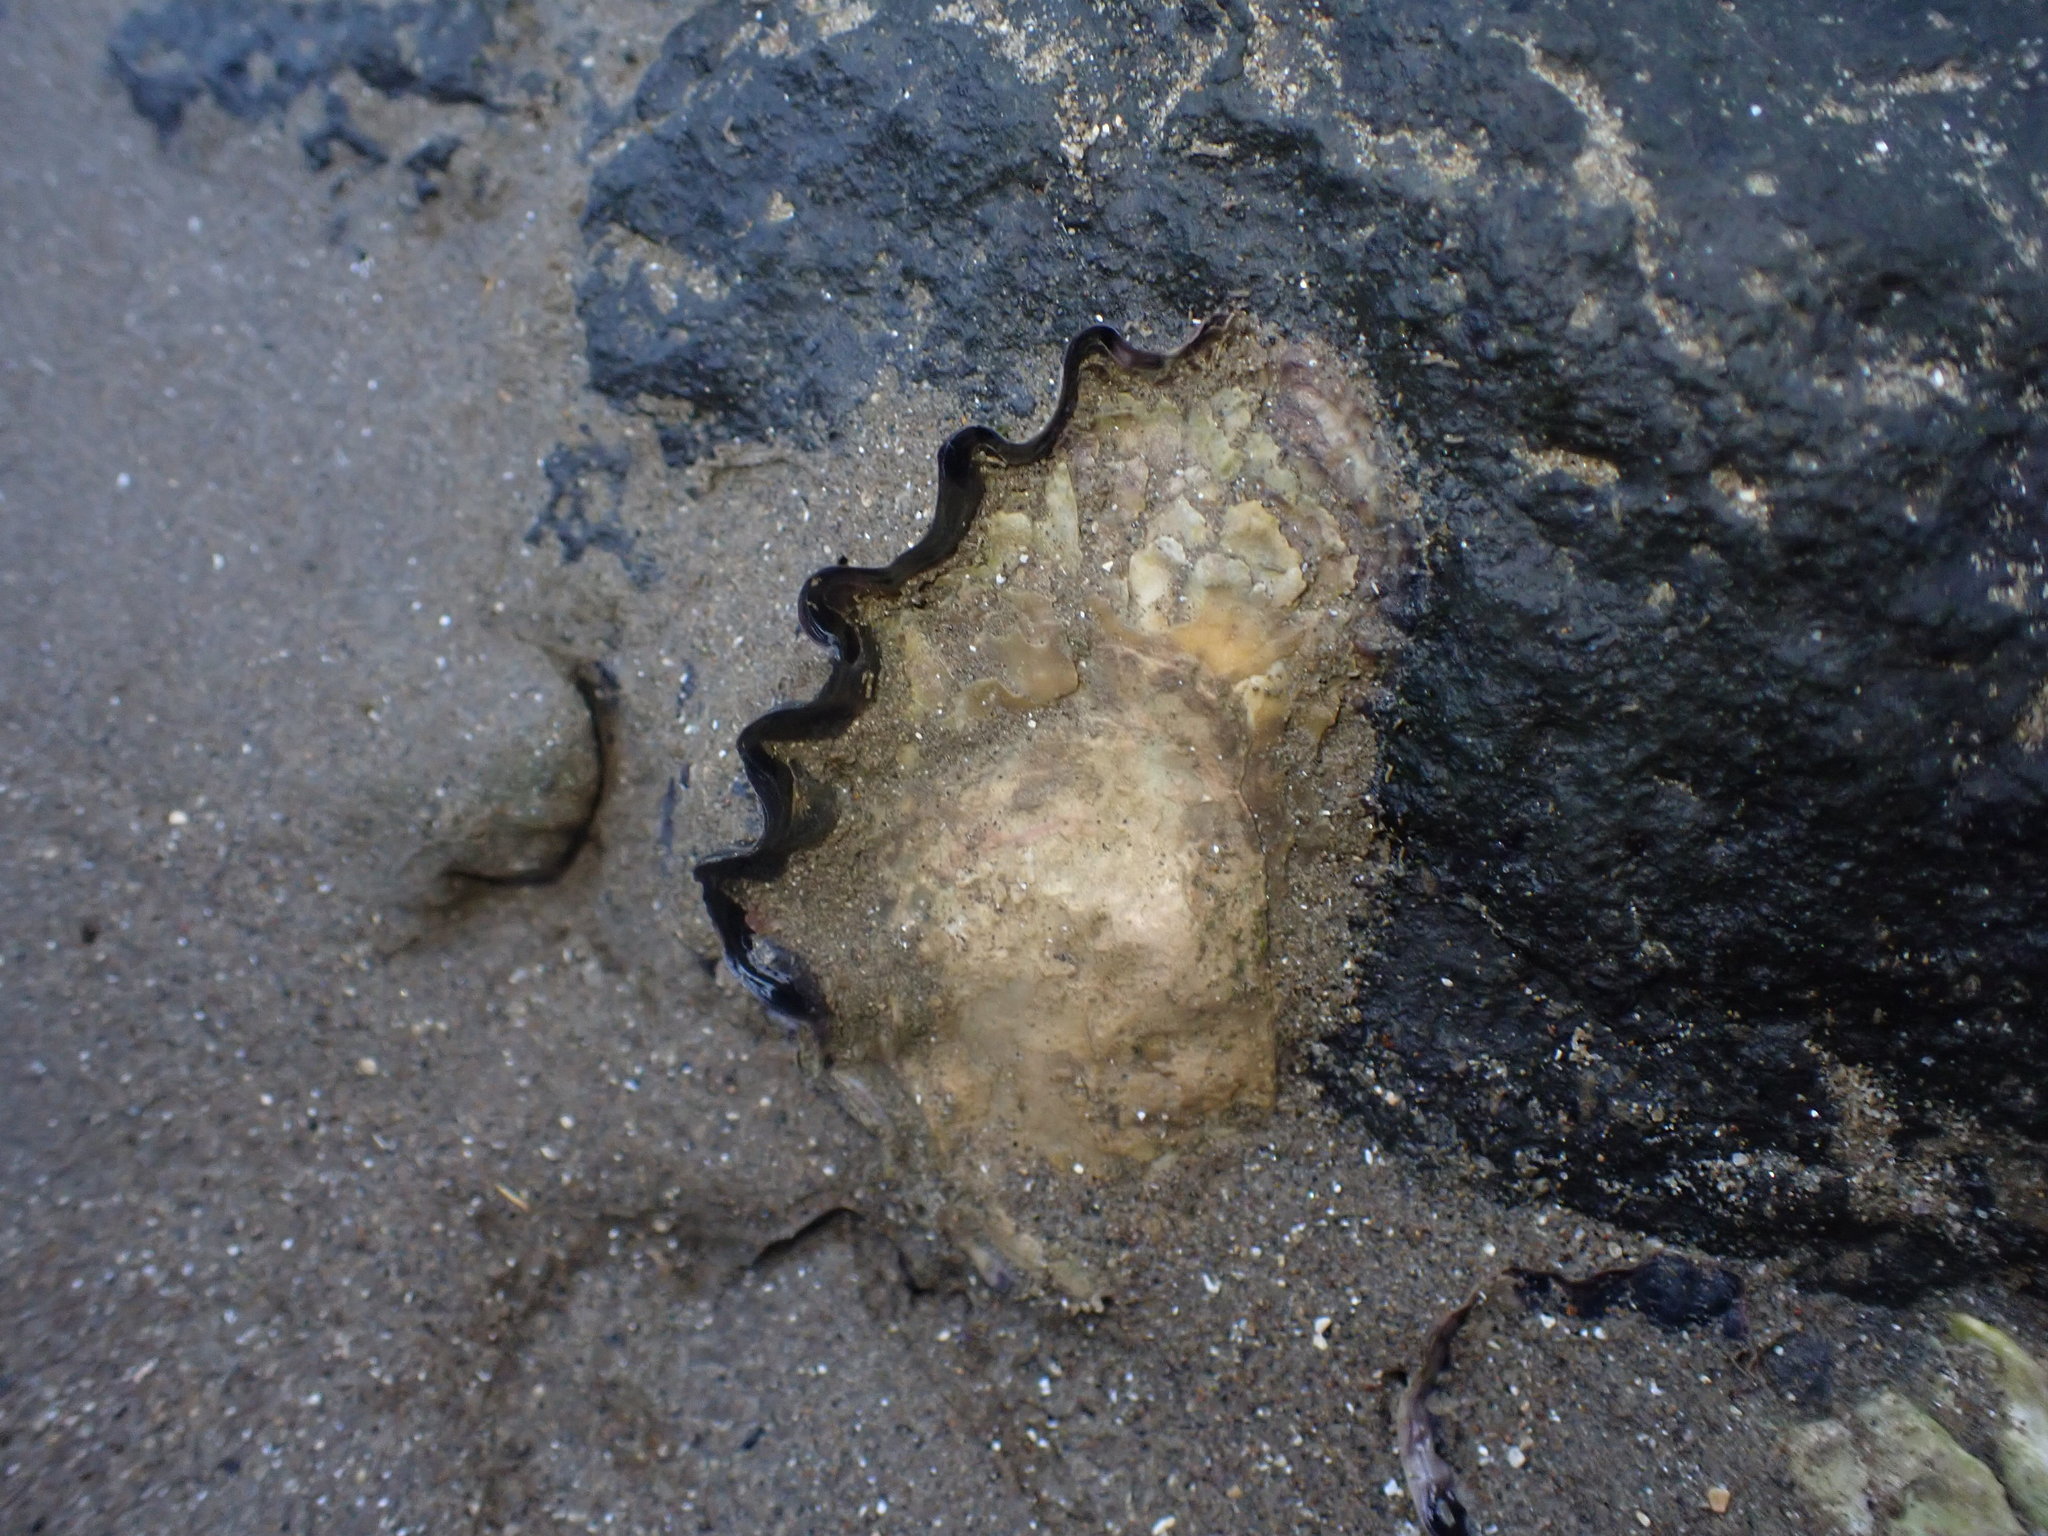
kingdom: Animalia
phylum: Mollusca
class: Bivalvia
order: Ostreida
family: Ostreidae
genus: Saccostrea
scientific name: Saccostrea glomerata
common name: Sydney cupped oyster
